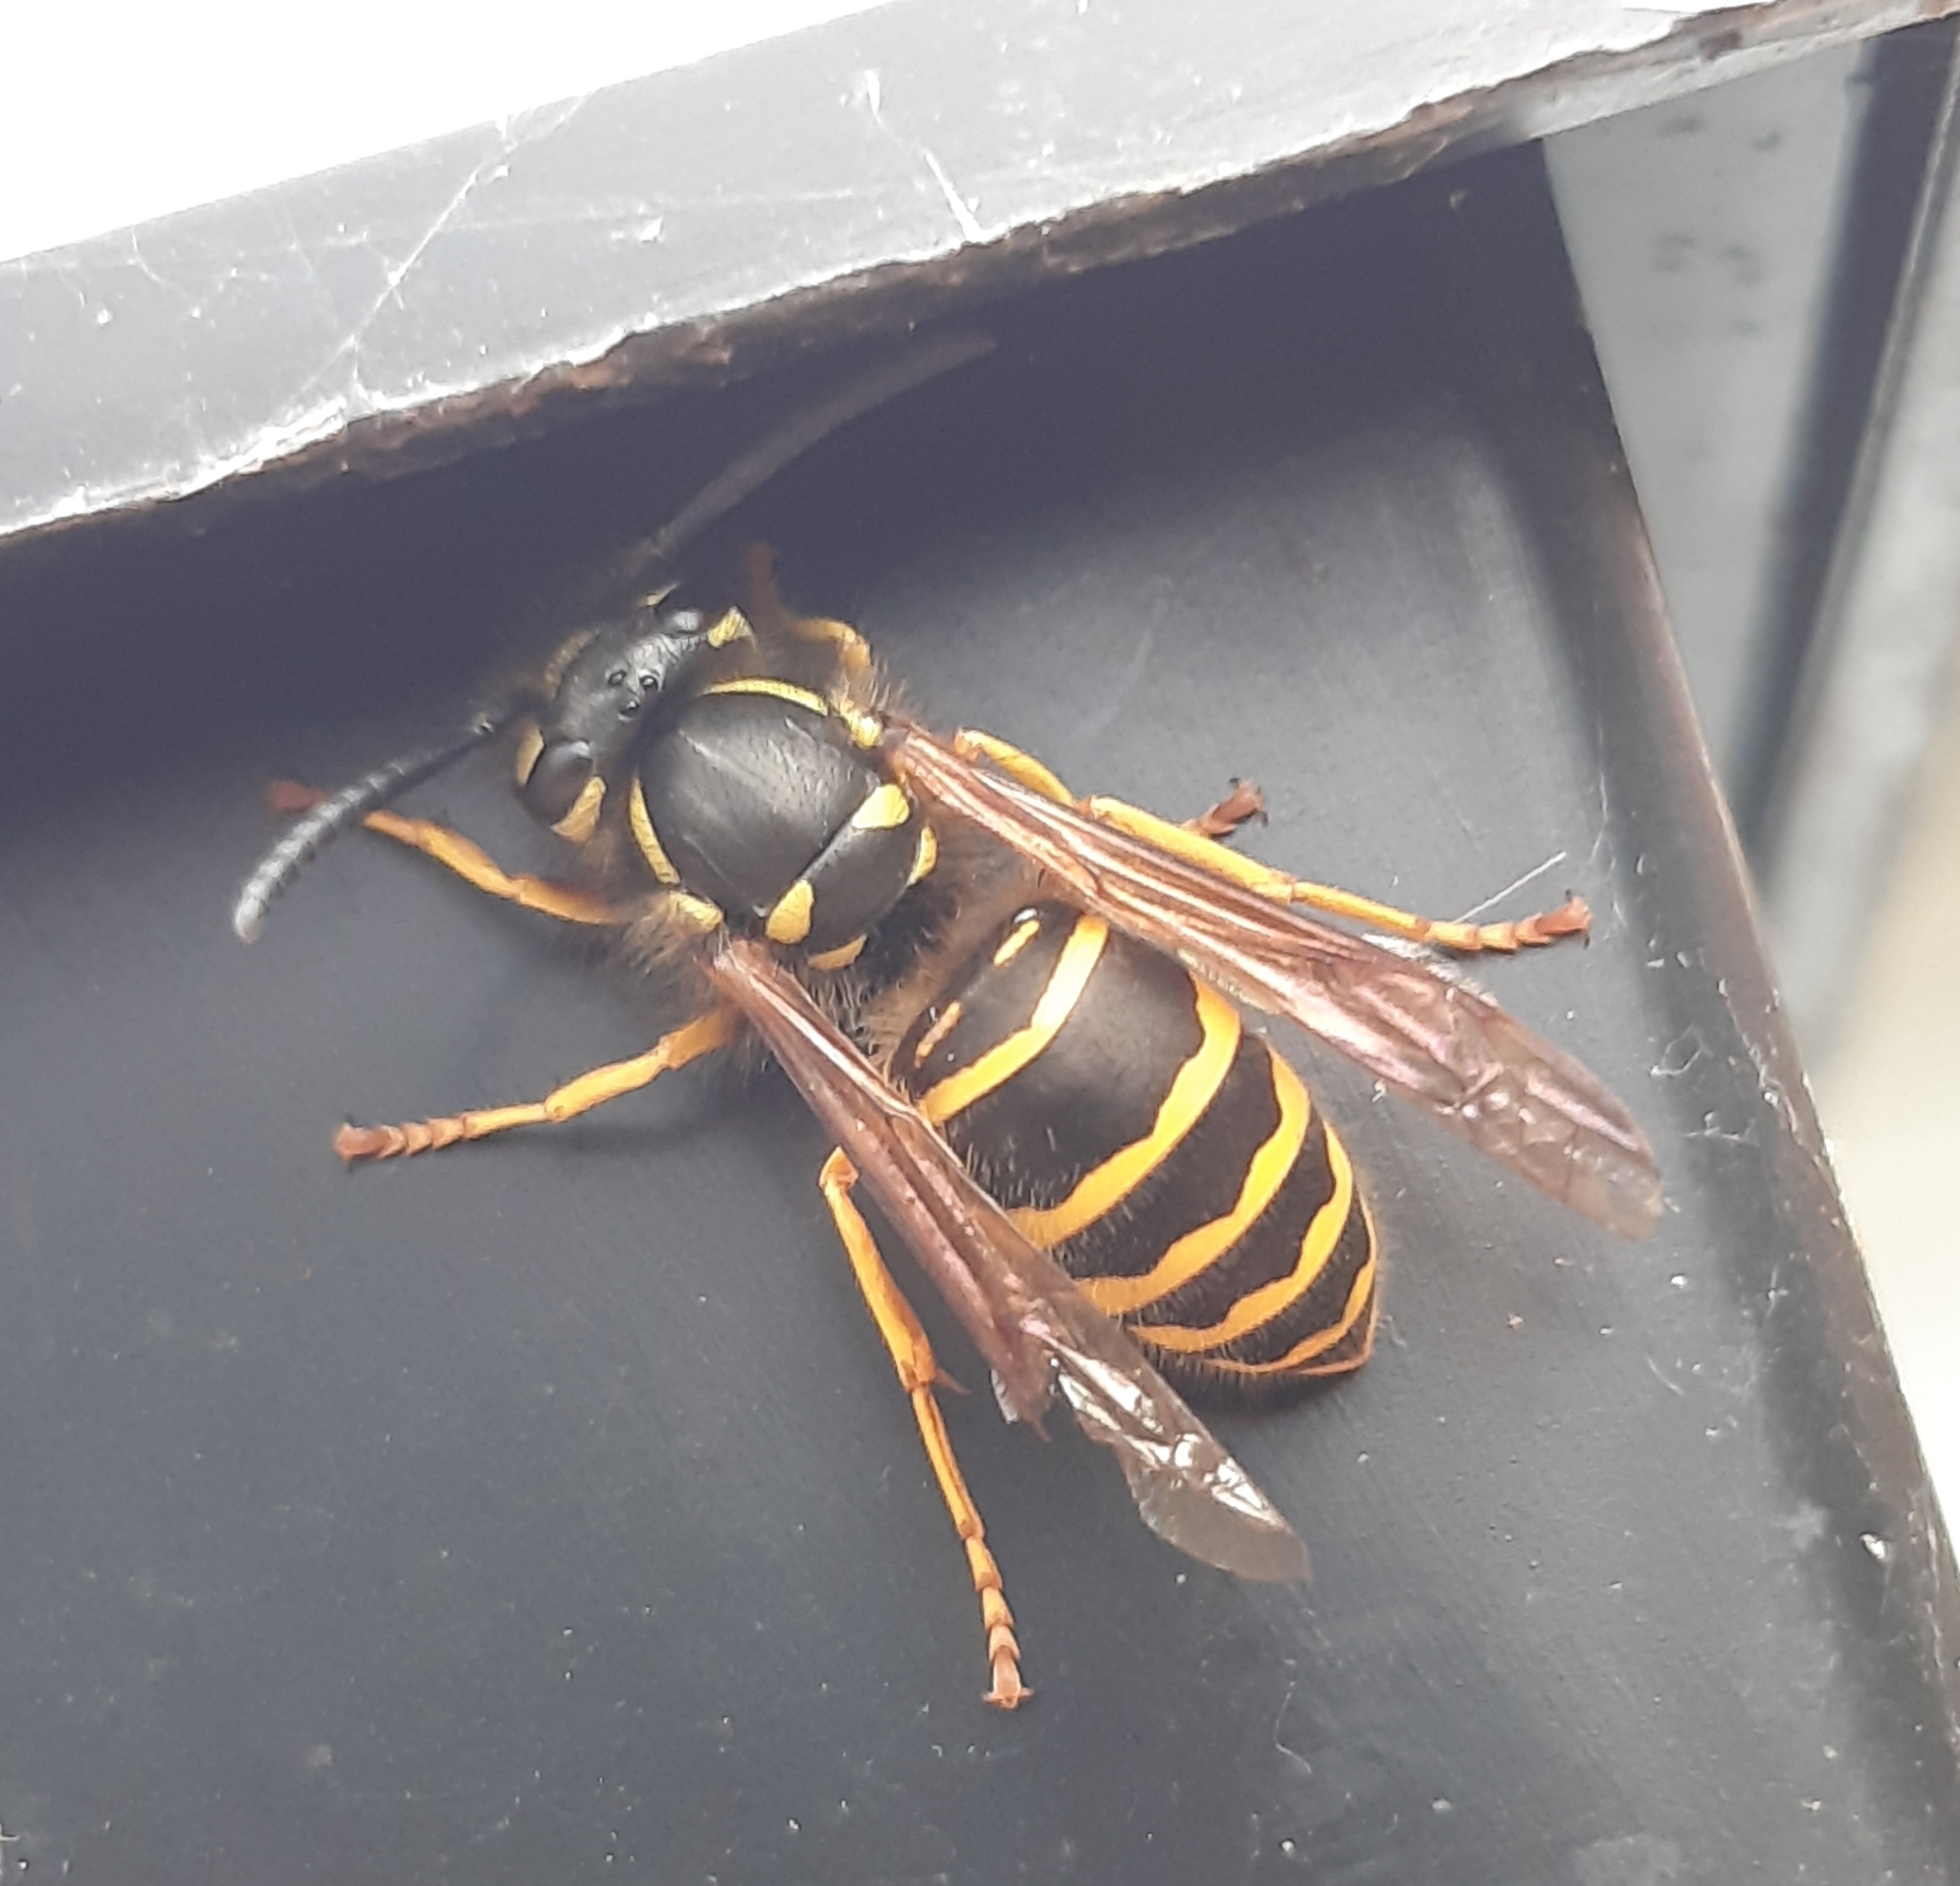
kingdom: Animalia
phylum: Arthropoda
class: Insecta
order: Hymenoptera
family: Vespidae
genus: Vespula
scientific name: Vespula maculifrons
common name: Eastern yellowjacket
